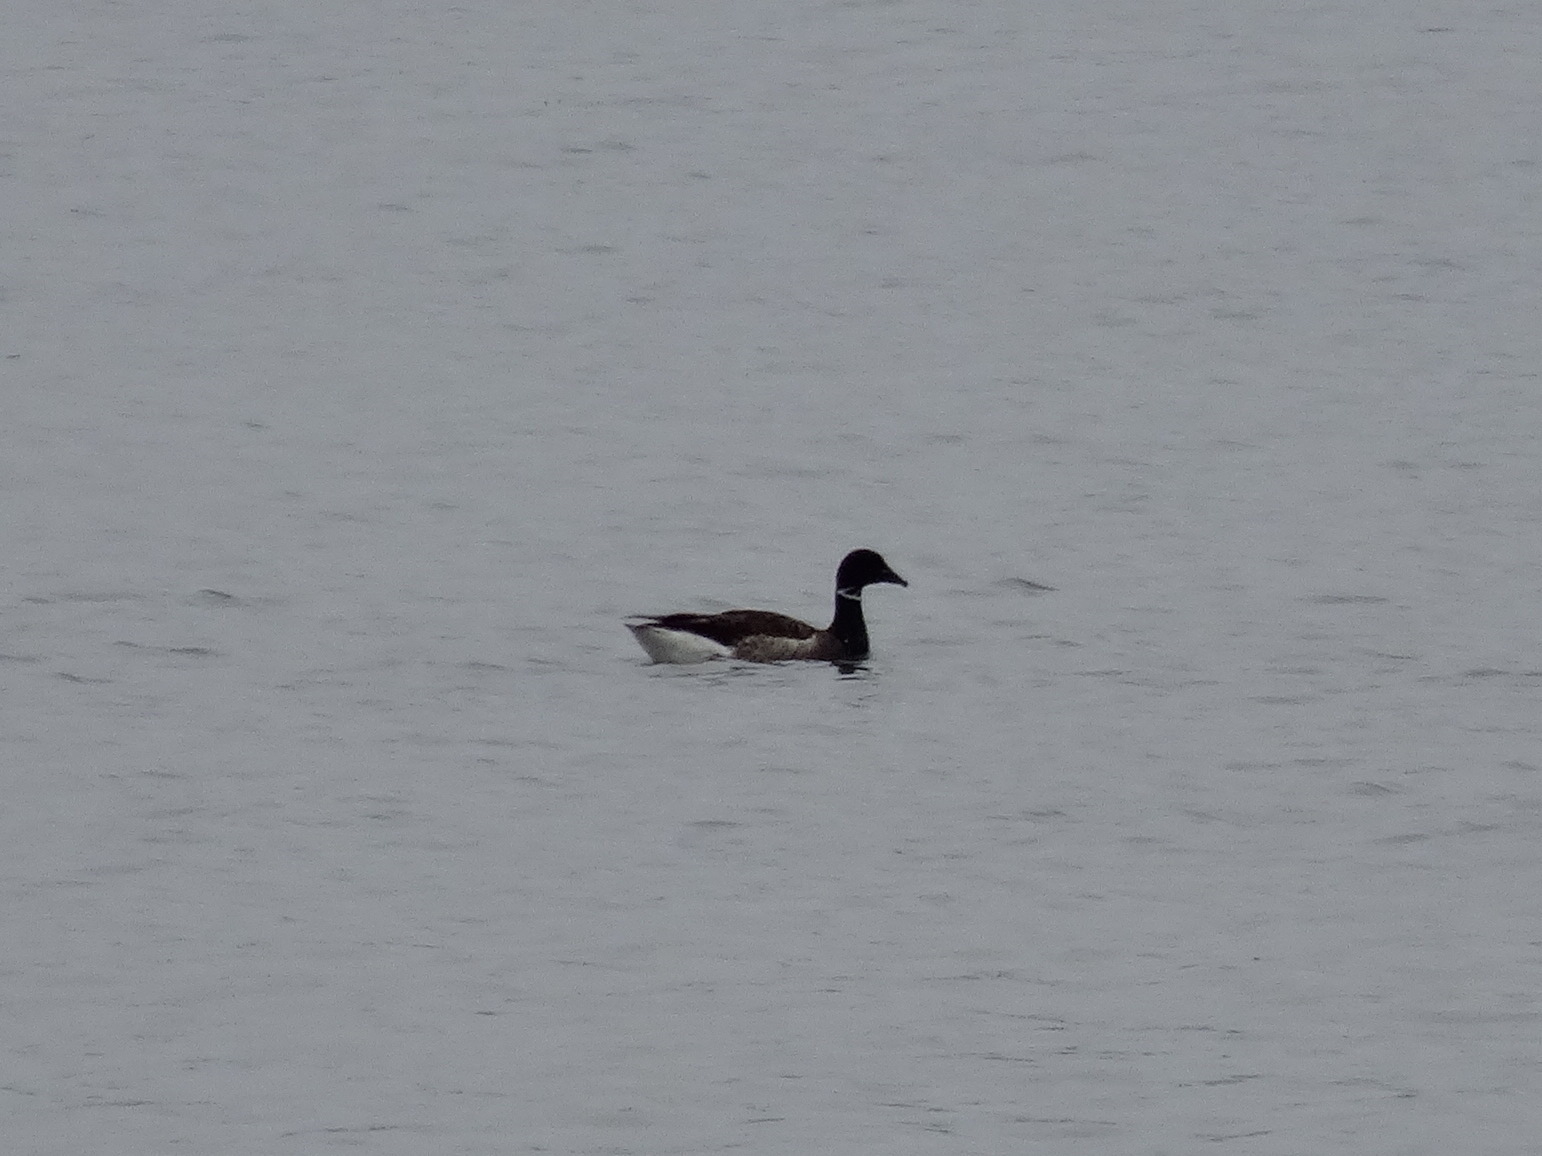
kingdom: Animalia
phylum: Chordata
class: Aves
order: Anseriformes
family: Anatidae
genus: Branta
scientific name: Branta bernicla
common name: Brant goose
